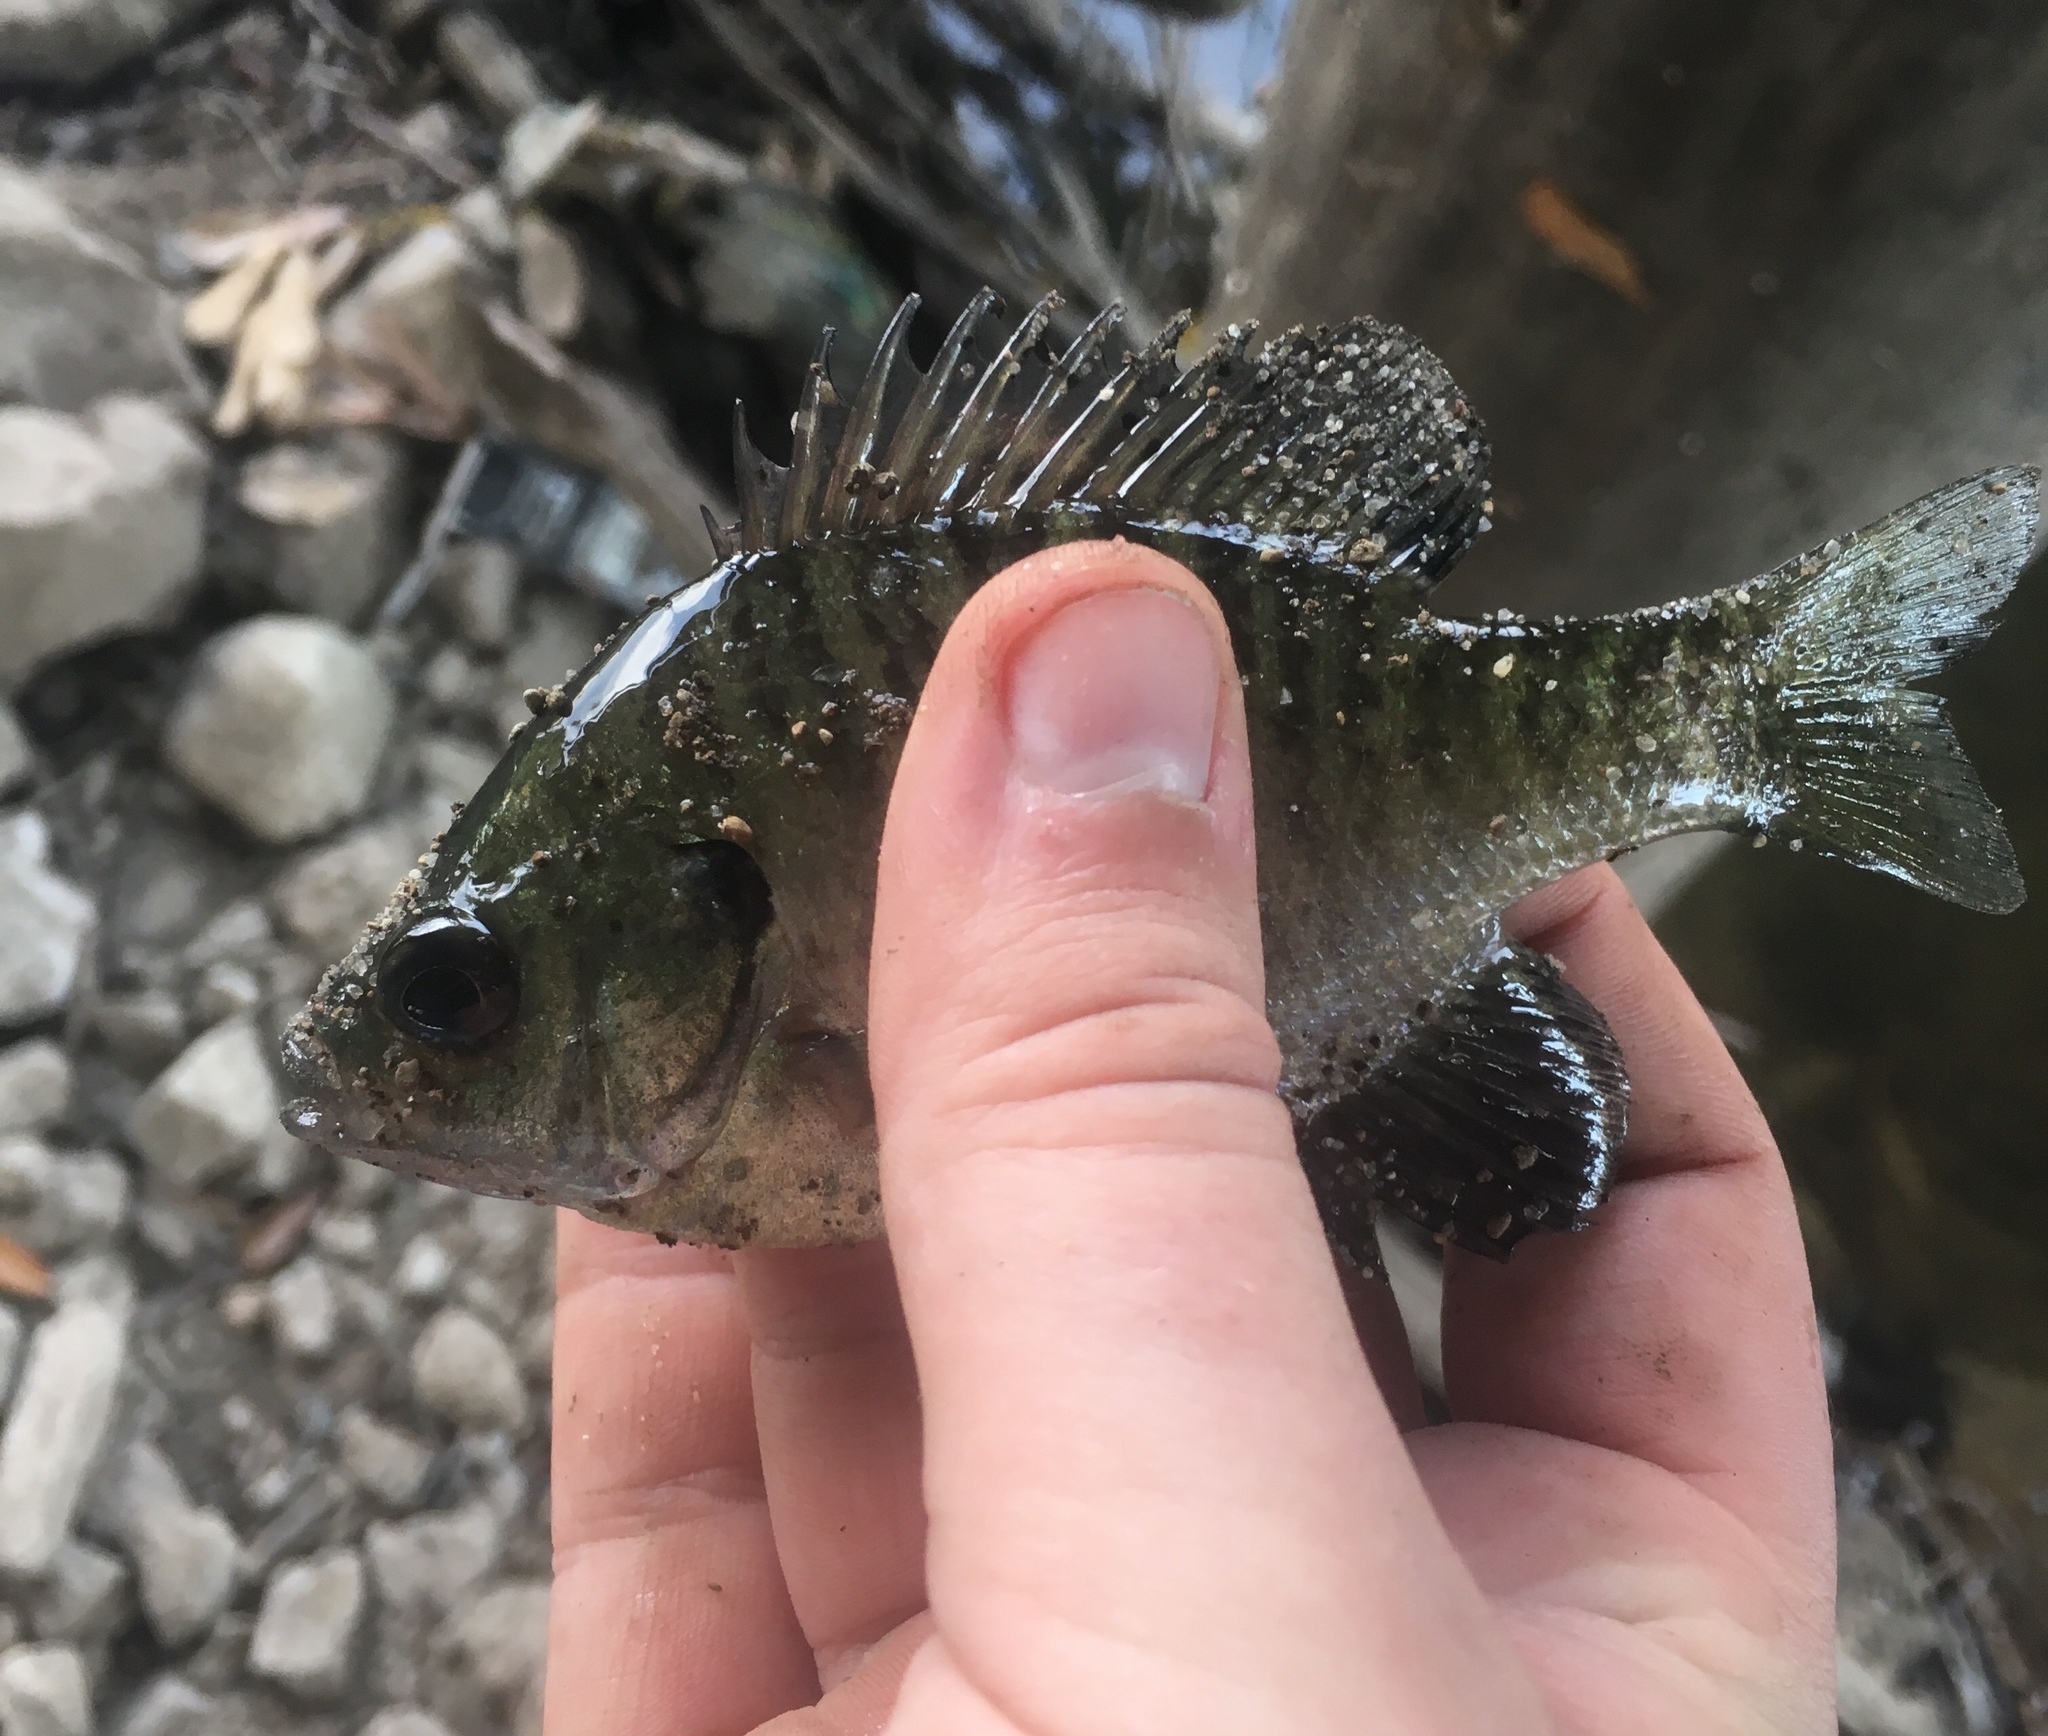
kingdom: Animalia
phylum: Chordata
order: Perciformes
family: Centrarchidae
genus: Lepomis
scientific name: Lepomis macrochirus
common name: Bluegill
